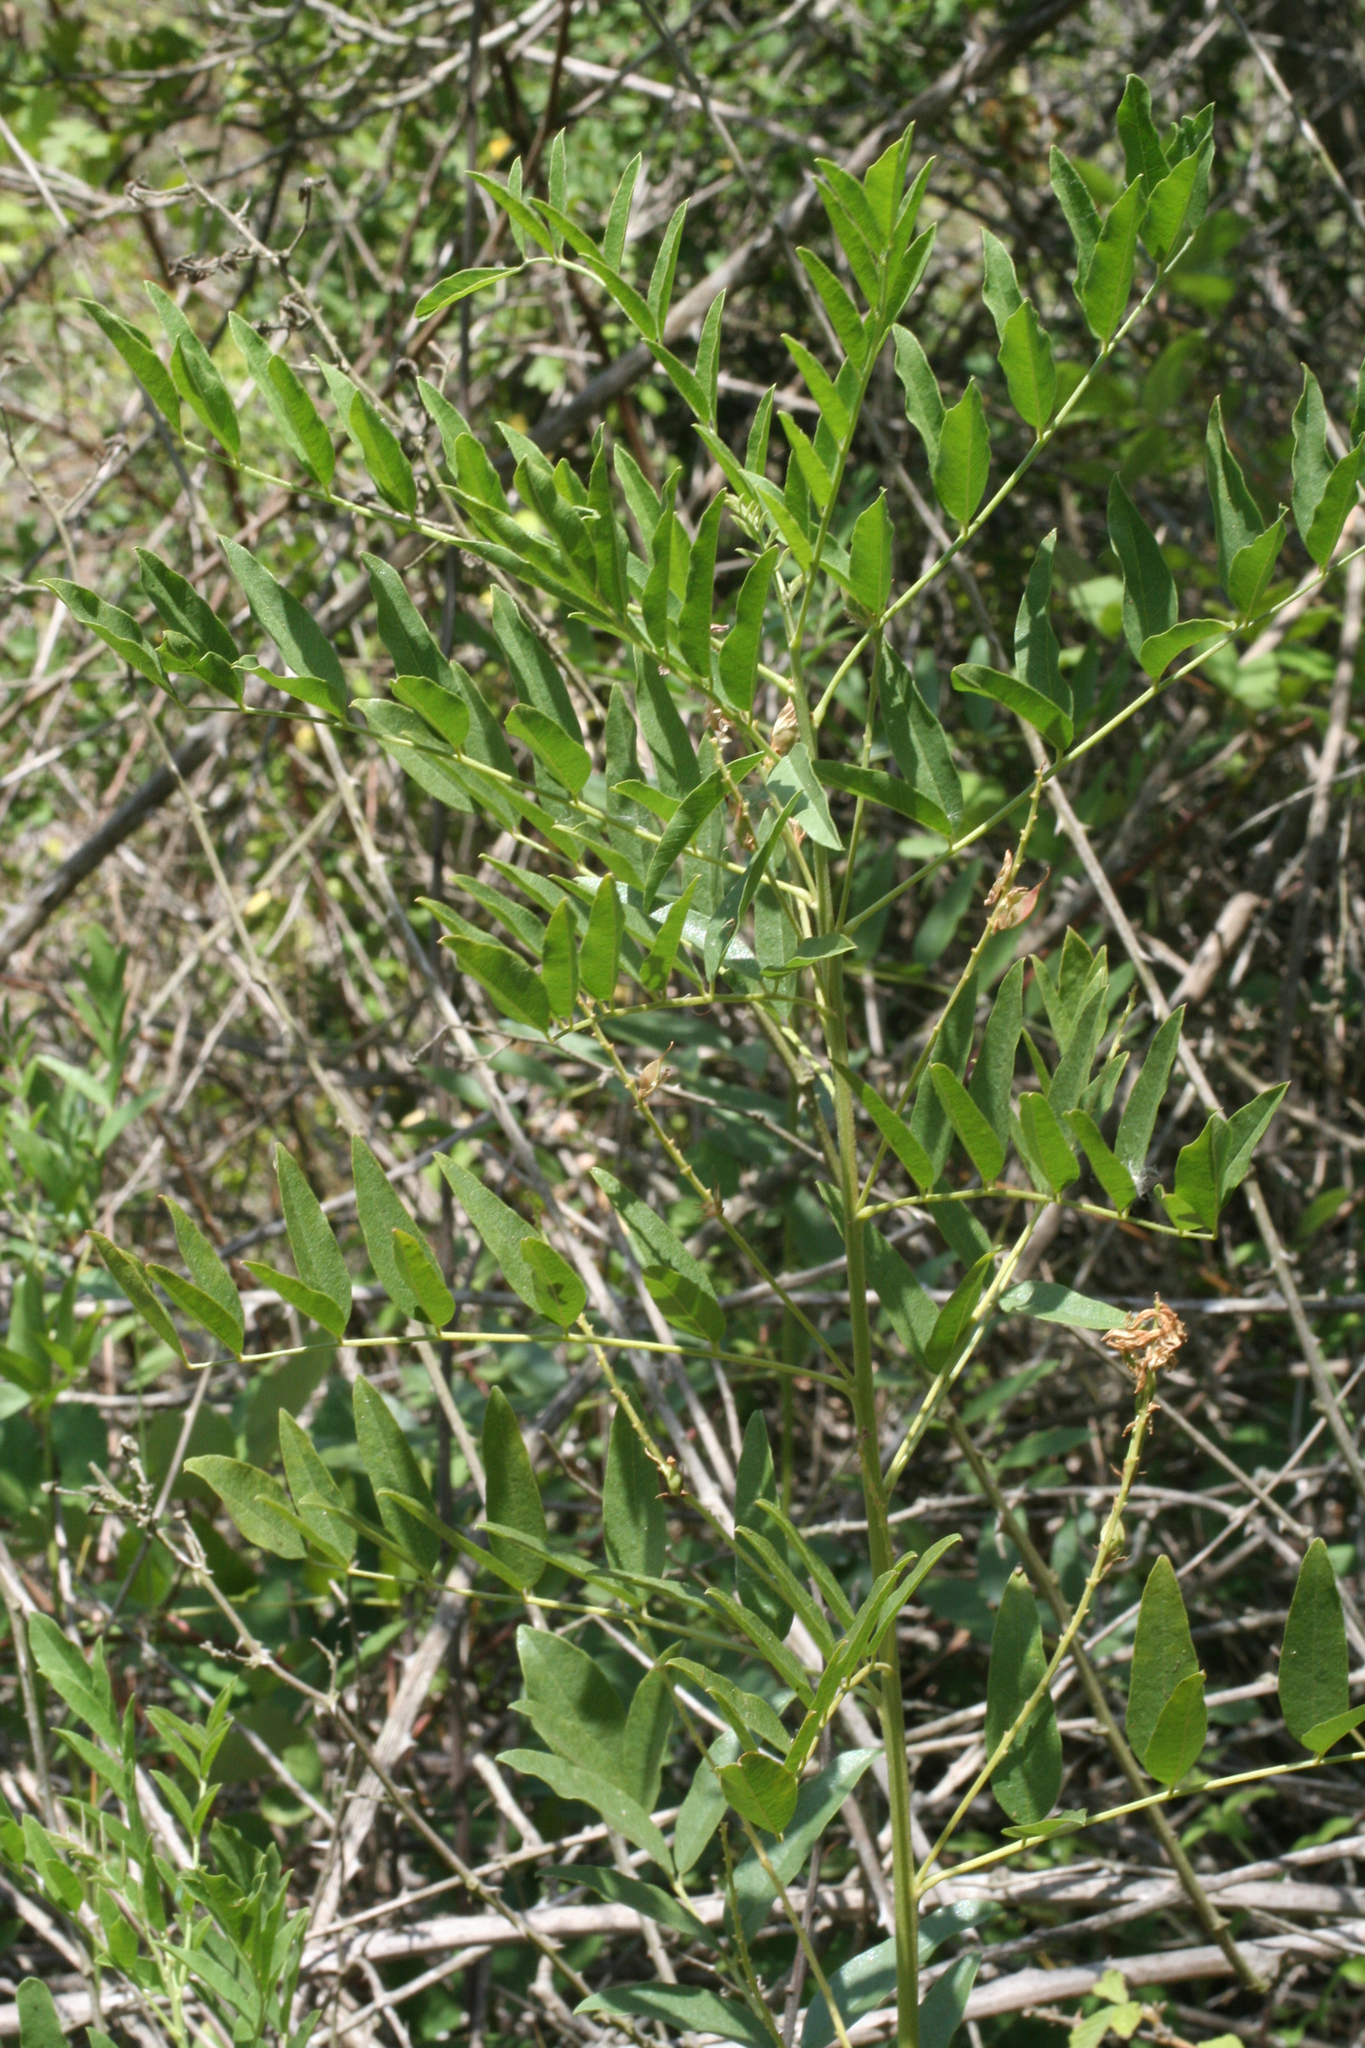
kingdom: Plantae
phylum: Tracheophyta
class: Magnoliopsida
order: Fabales
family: Fabaceae
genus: Glycyrrhiza
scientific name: Glycyrrhiza glabra
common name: Liquorice
